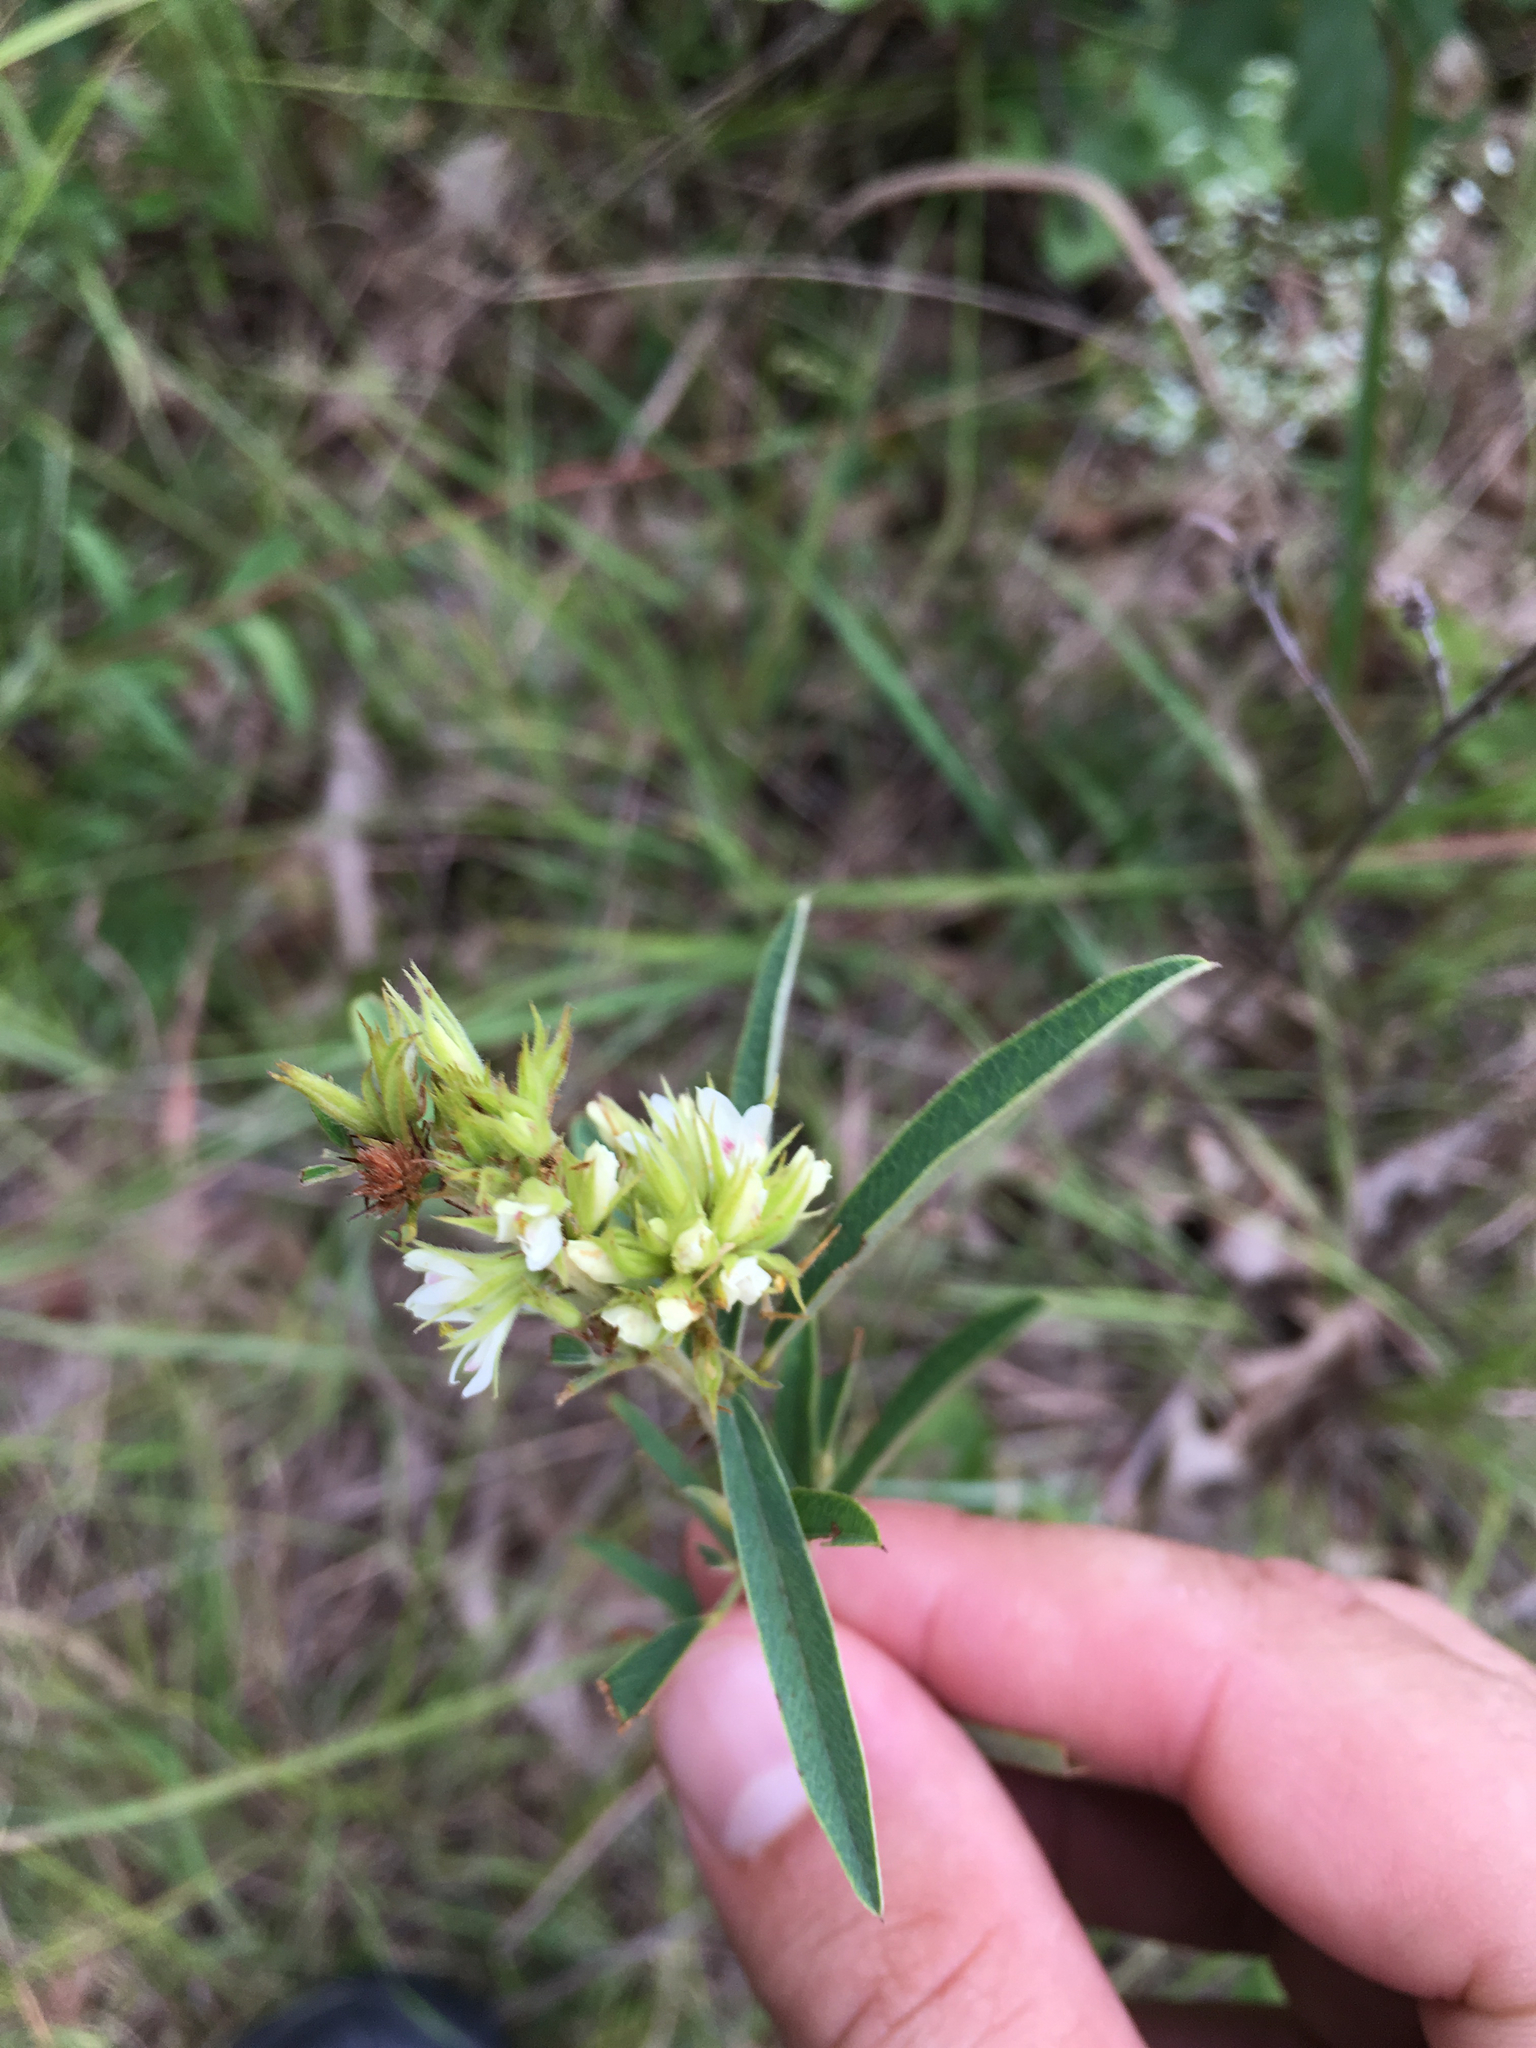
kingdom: Plantae
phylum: Tracheophyta
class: Magnoliopsida
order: Fabales
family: Fabaceae
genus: Lespedeza
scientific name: Lespedeza capitata
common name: Dusty clover
